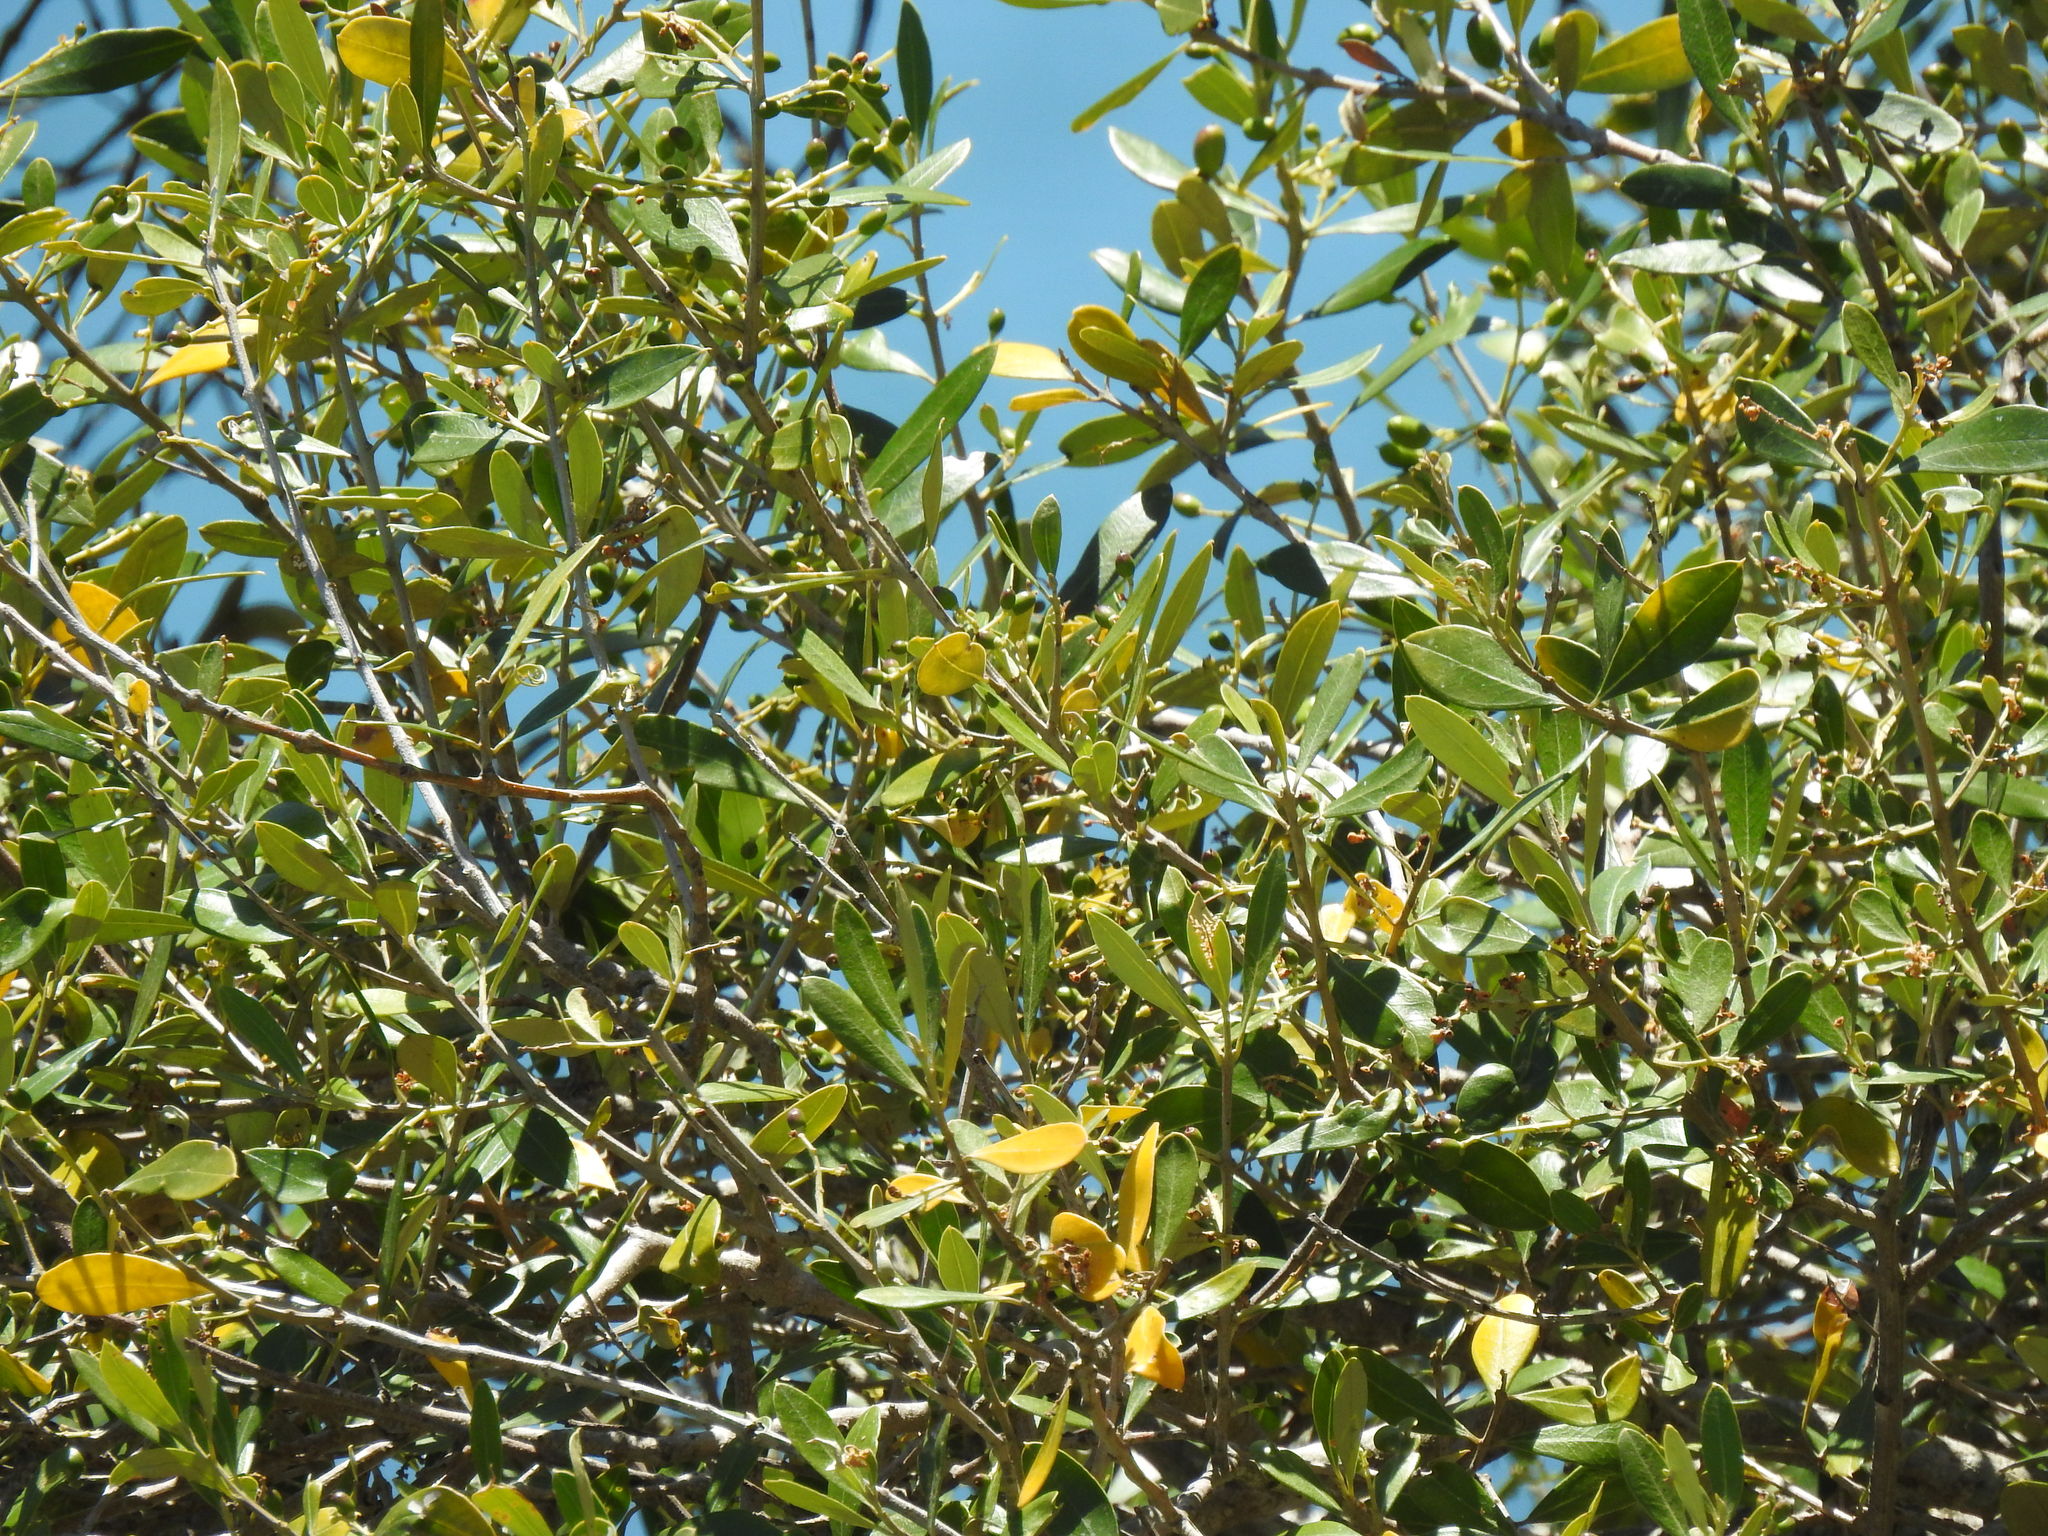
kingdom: Plantae
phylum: Tracheophyta
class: Magnoliopsida
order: Lamiales
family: Oleaceae
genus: Olea
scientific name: Olea europaea
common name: Olive
